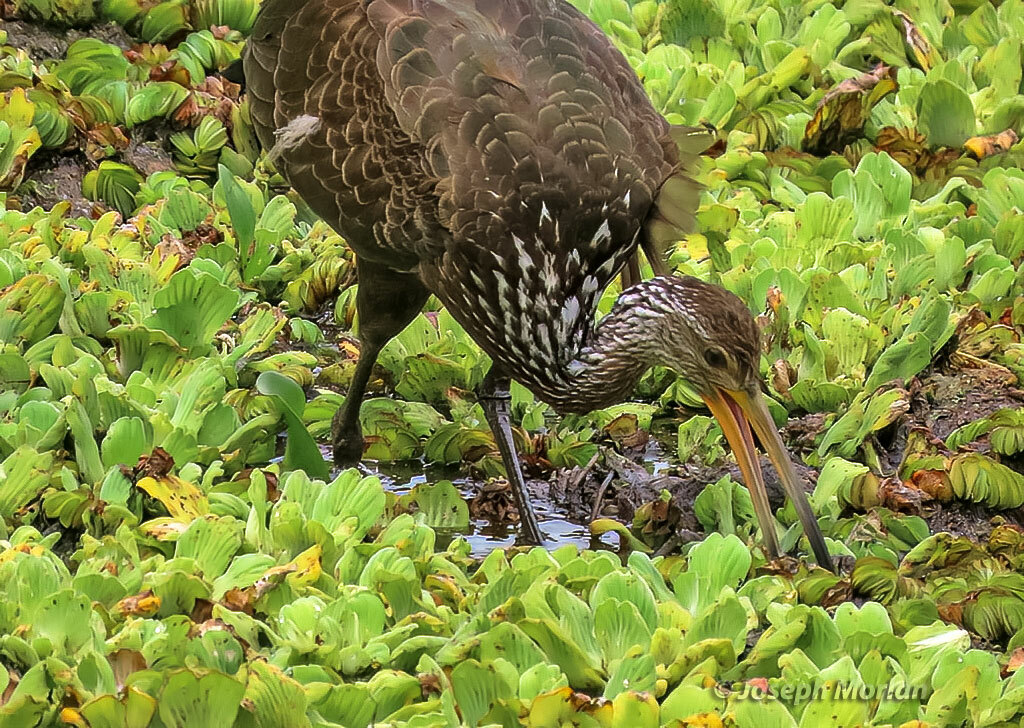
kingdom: Animalia
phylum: Chordata
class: Aves
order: Gruiformes
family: Aramidae
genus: Aramus
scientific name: Aramus guarauna
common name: Limpkin
